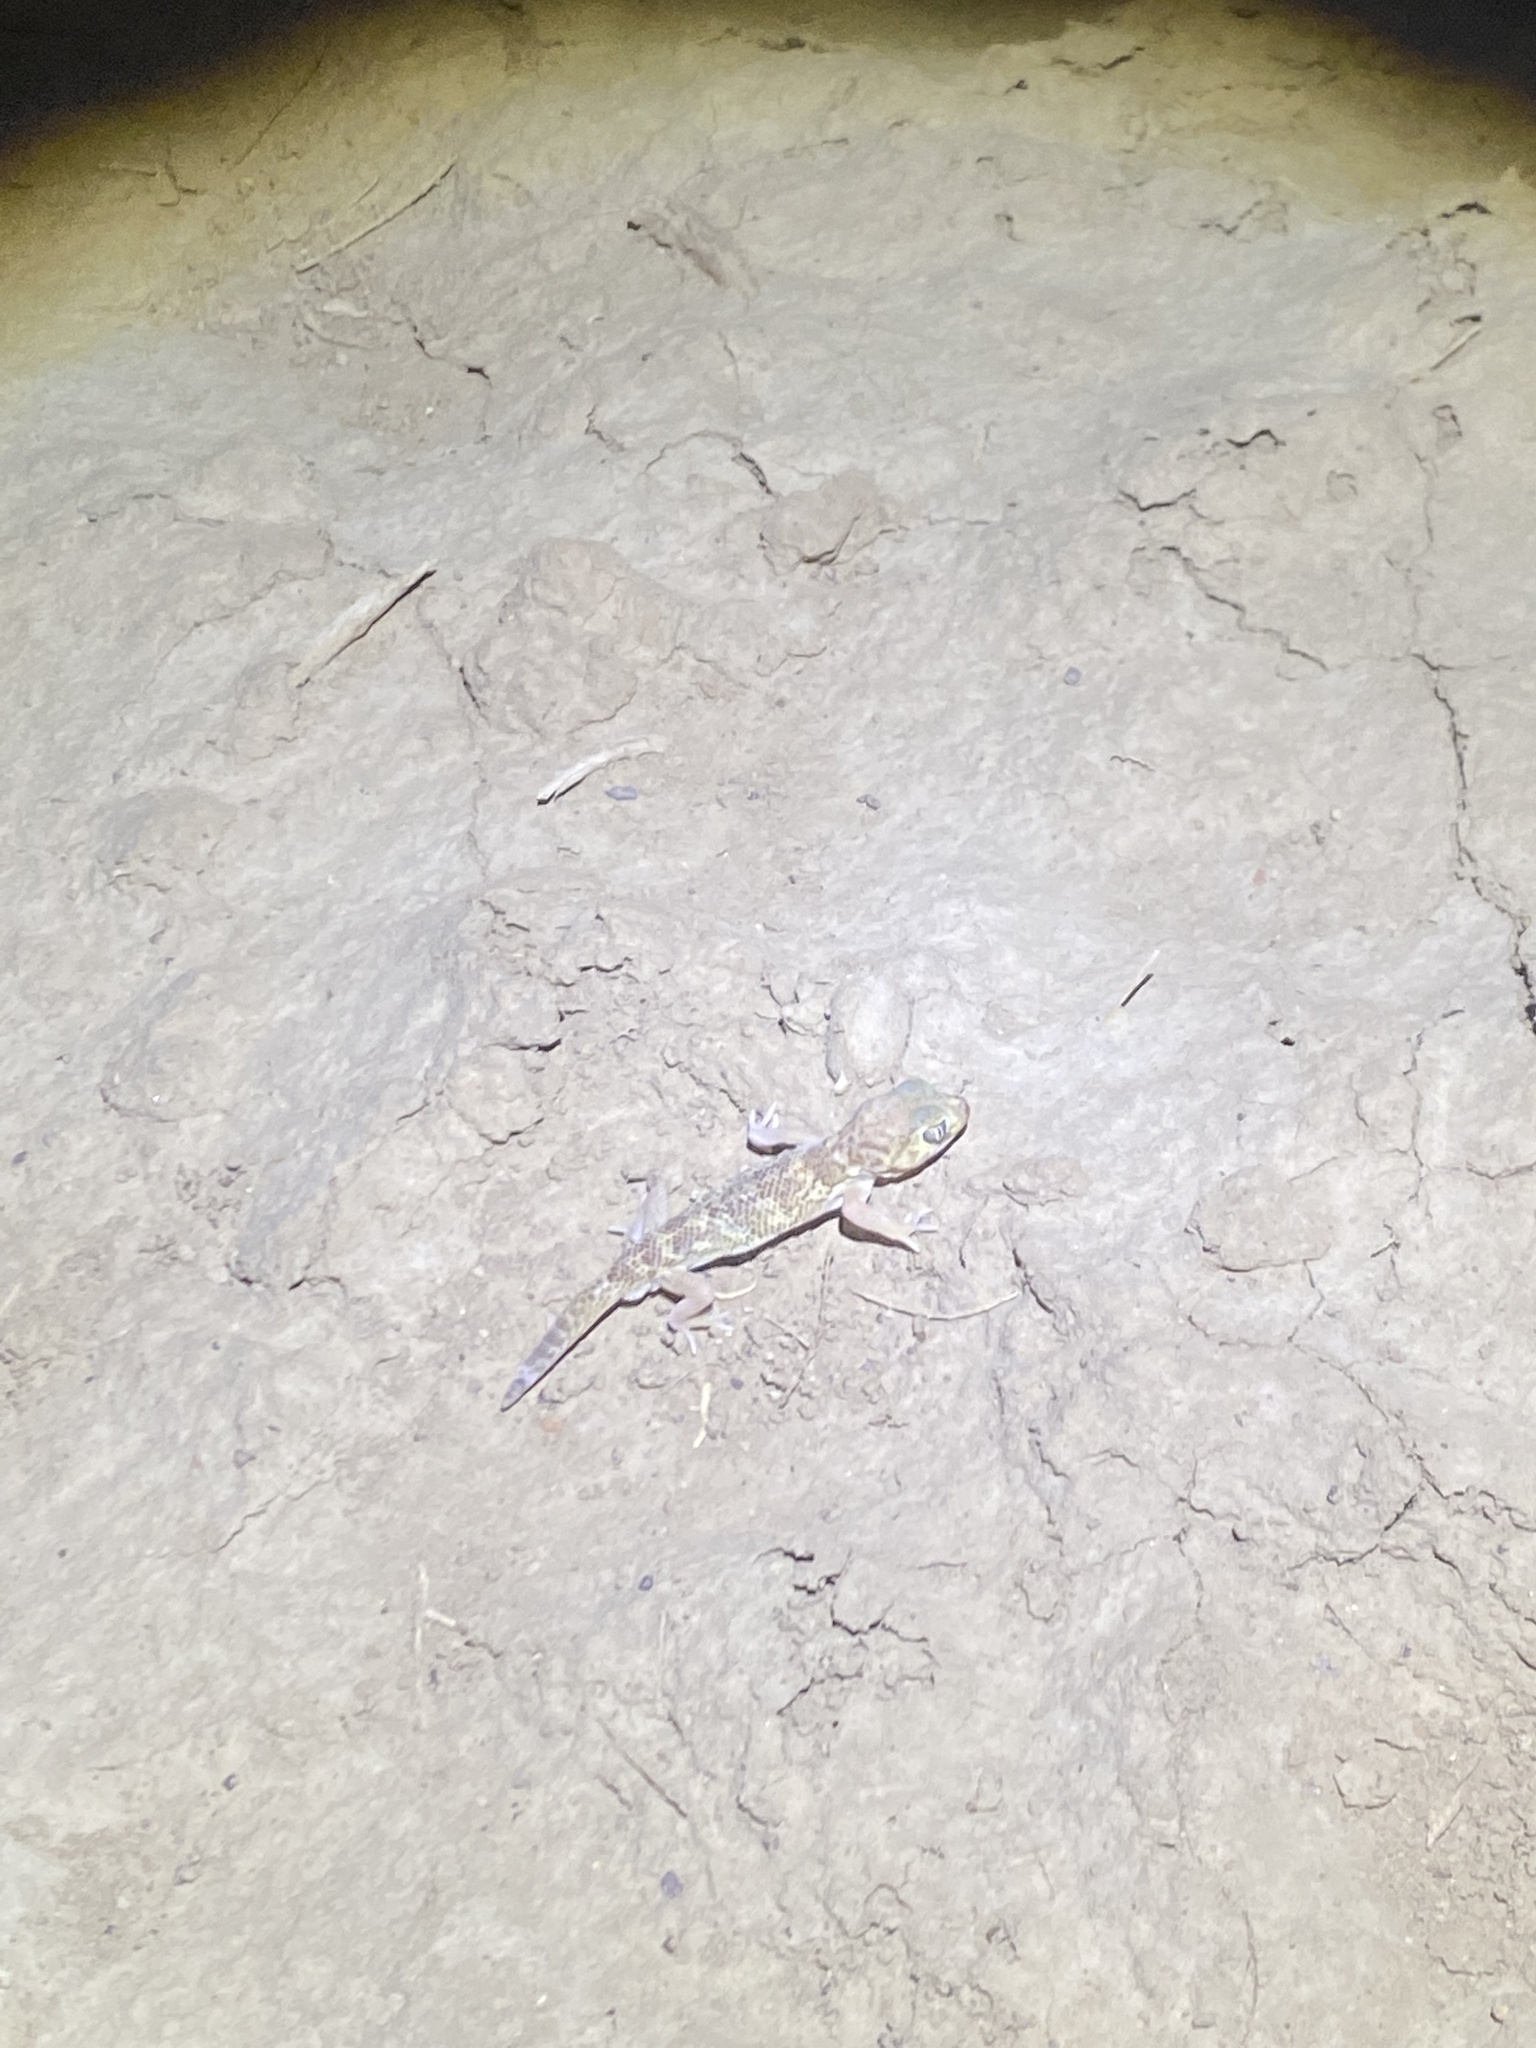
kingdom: Animalia
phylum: Chordata
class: Squamata
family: Sphaerodactylidae
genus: Teratoscincus
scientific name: Teratoscincus bedriagai
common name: Bedriaga's plate-tailed gecko
